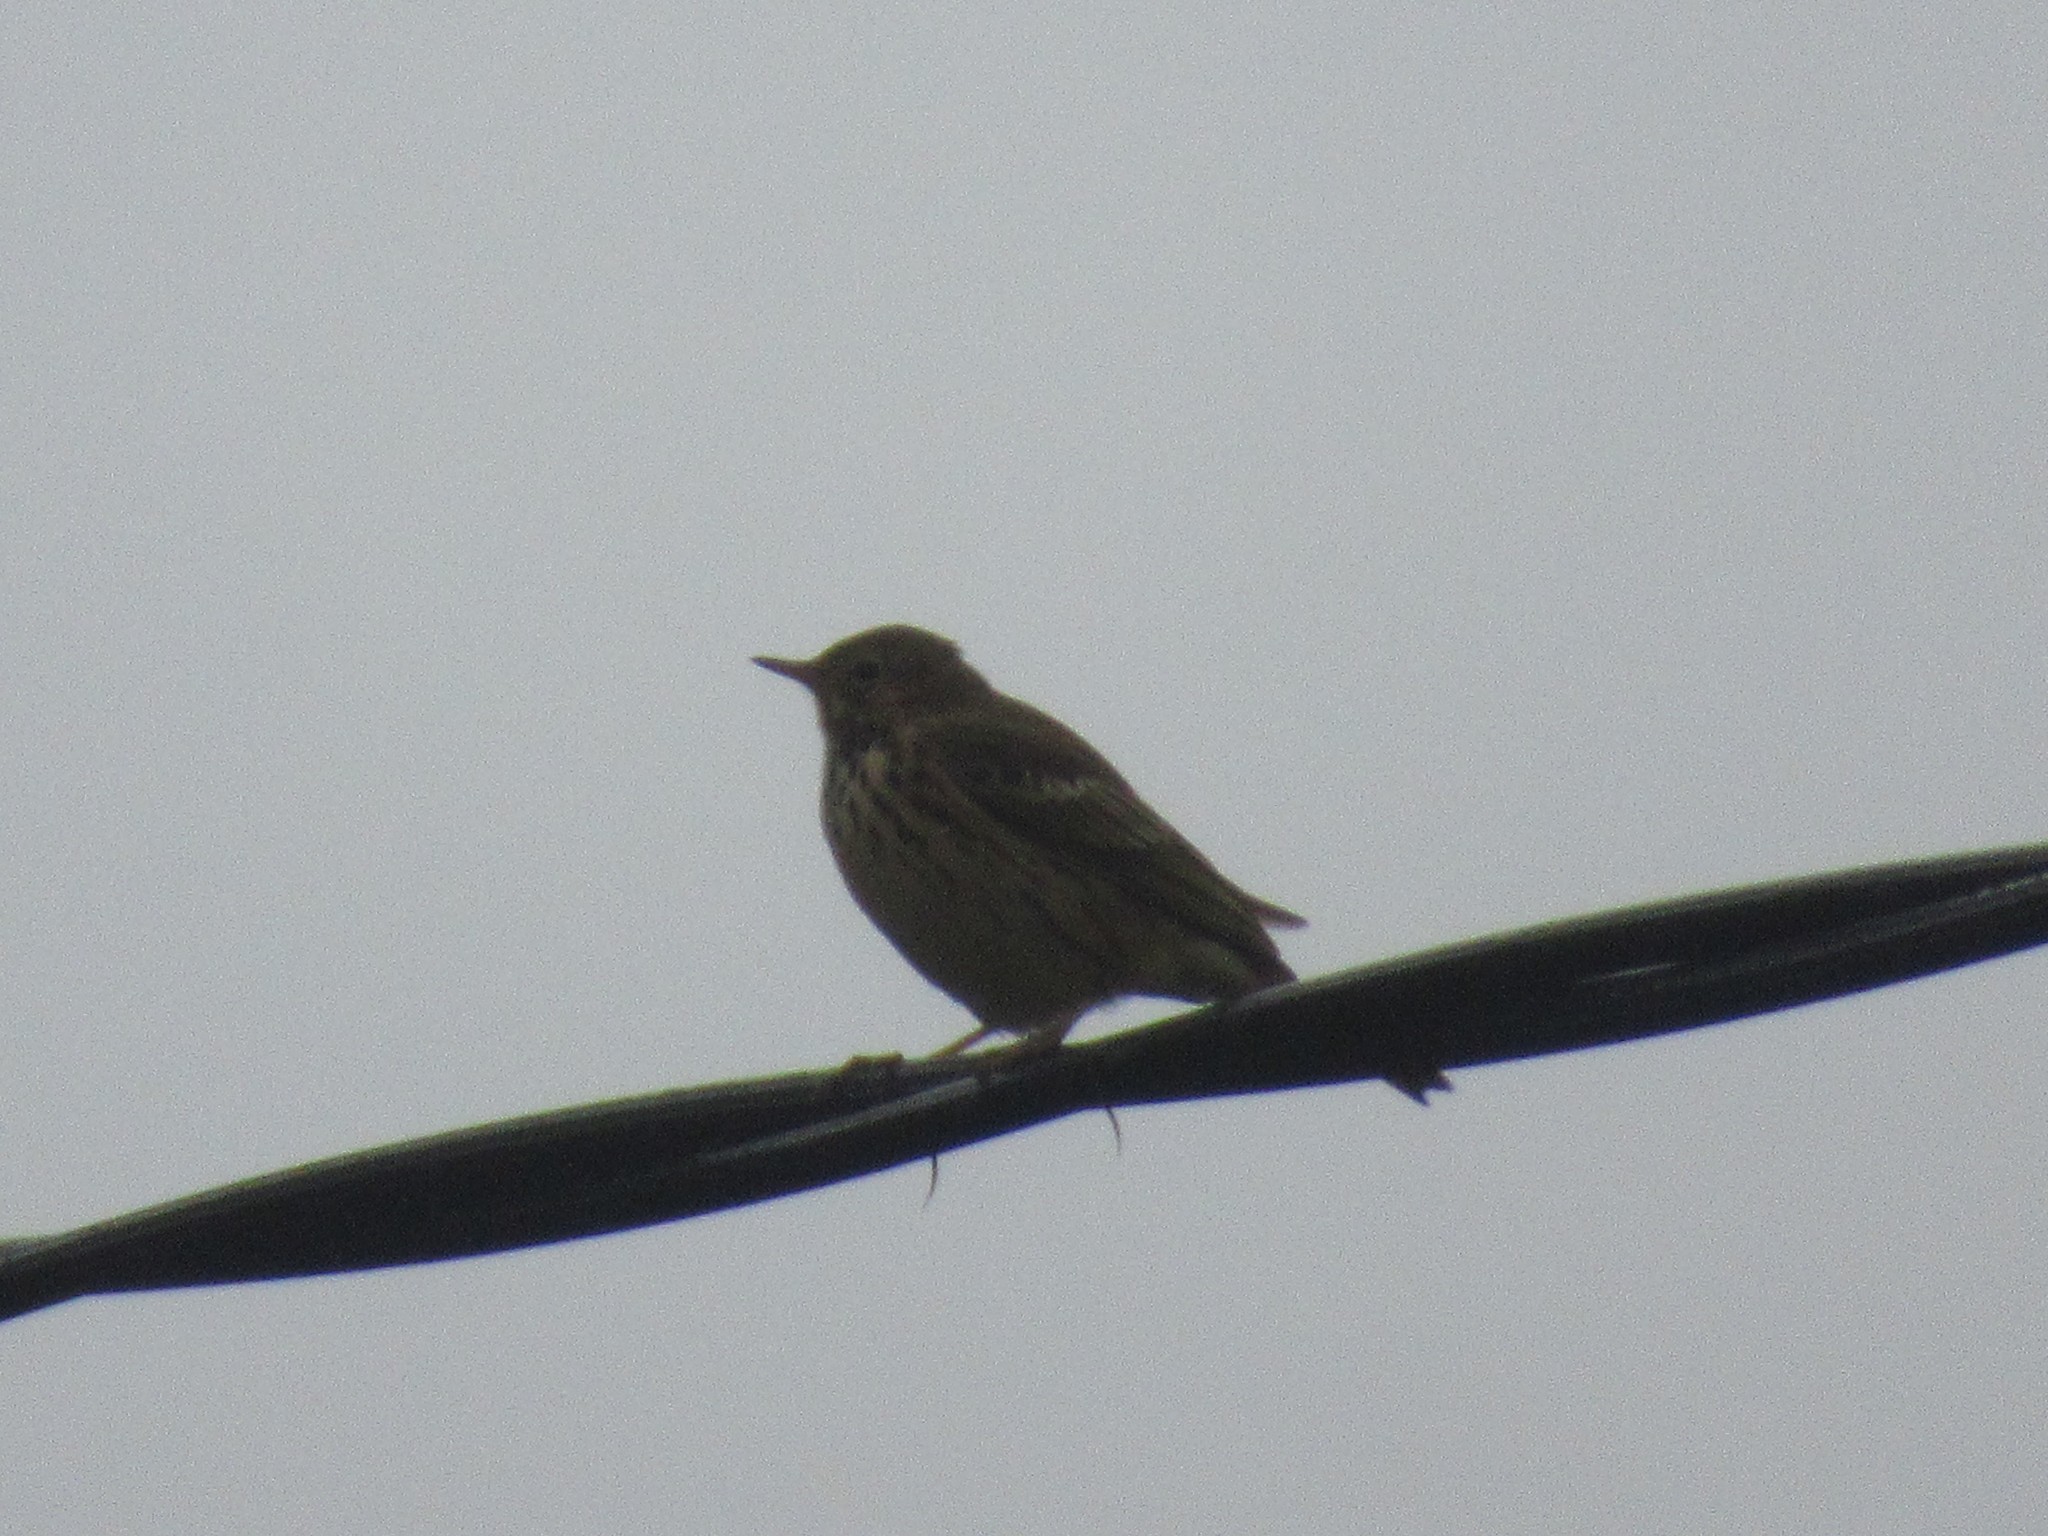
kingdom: Animalia
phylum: Chordata
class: Aves
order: Passeriformes
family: Motacillidae
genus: Anthus
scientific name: Anthus pratensis
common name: Meadow pipit
